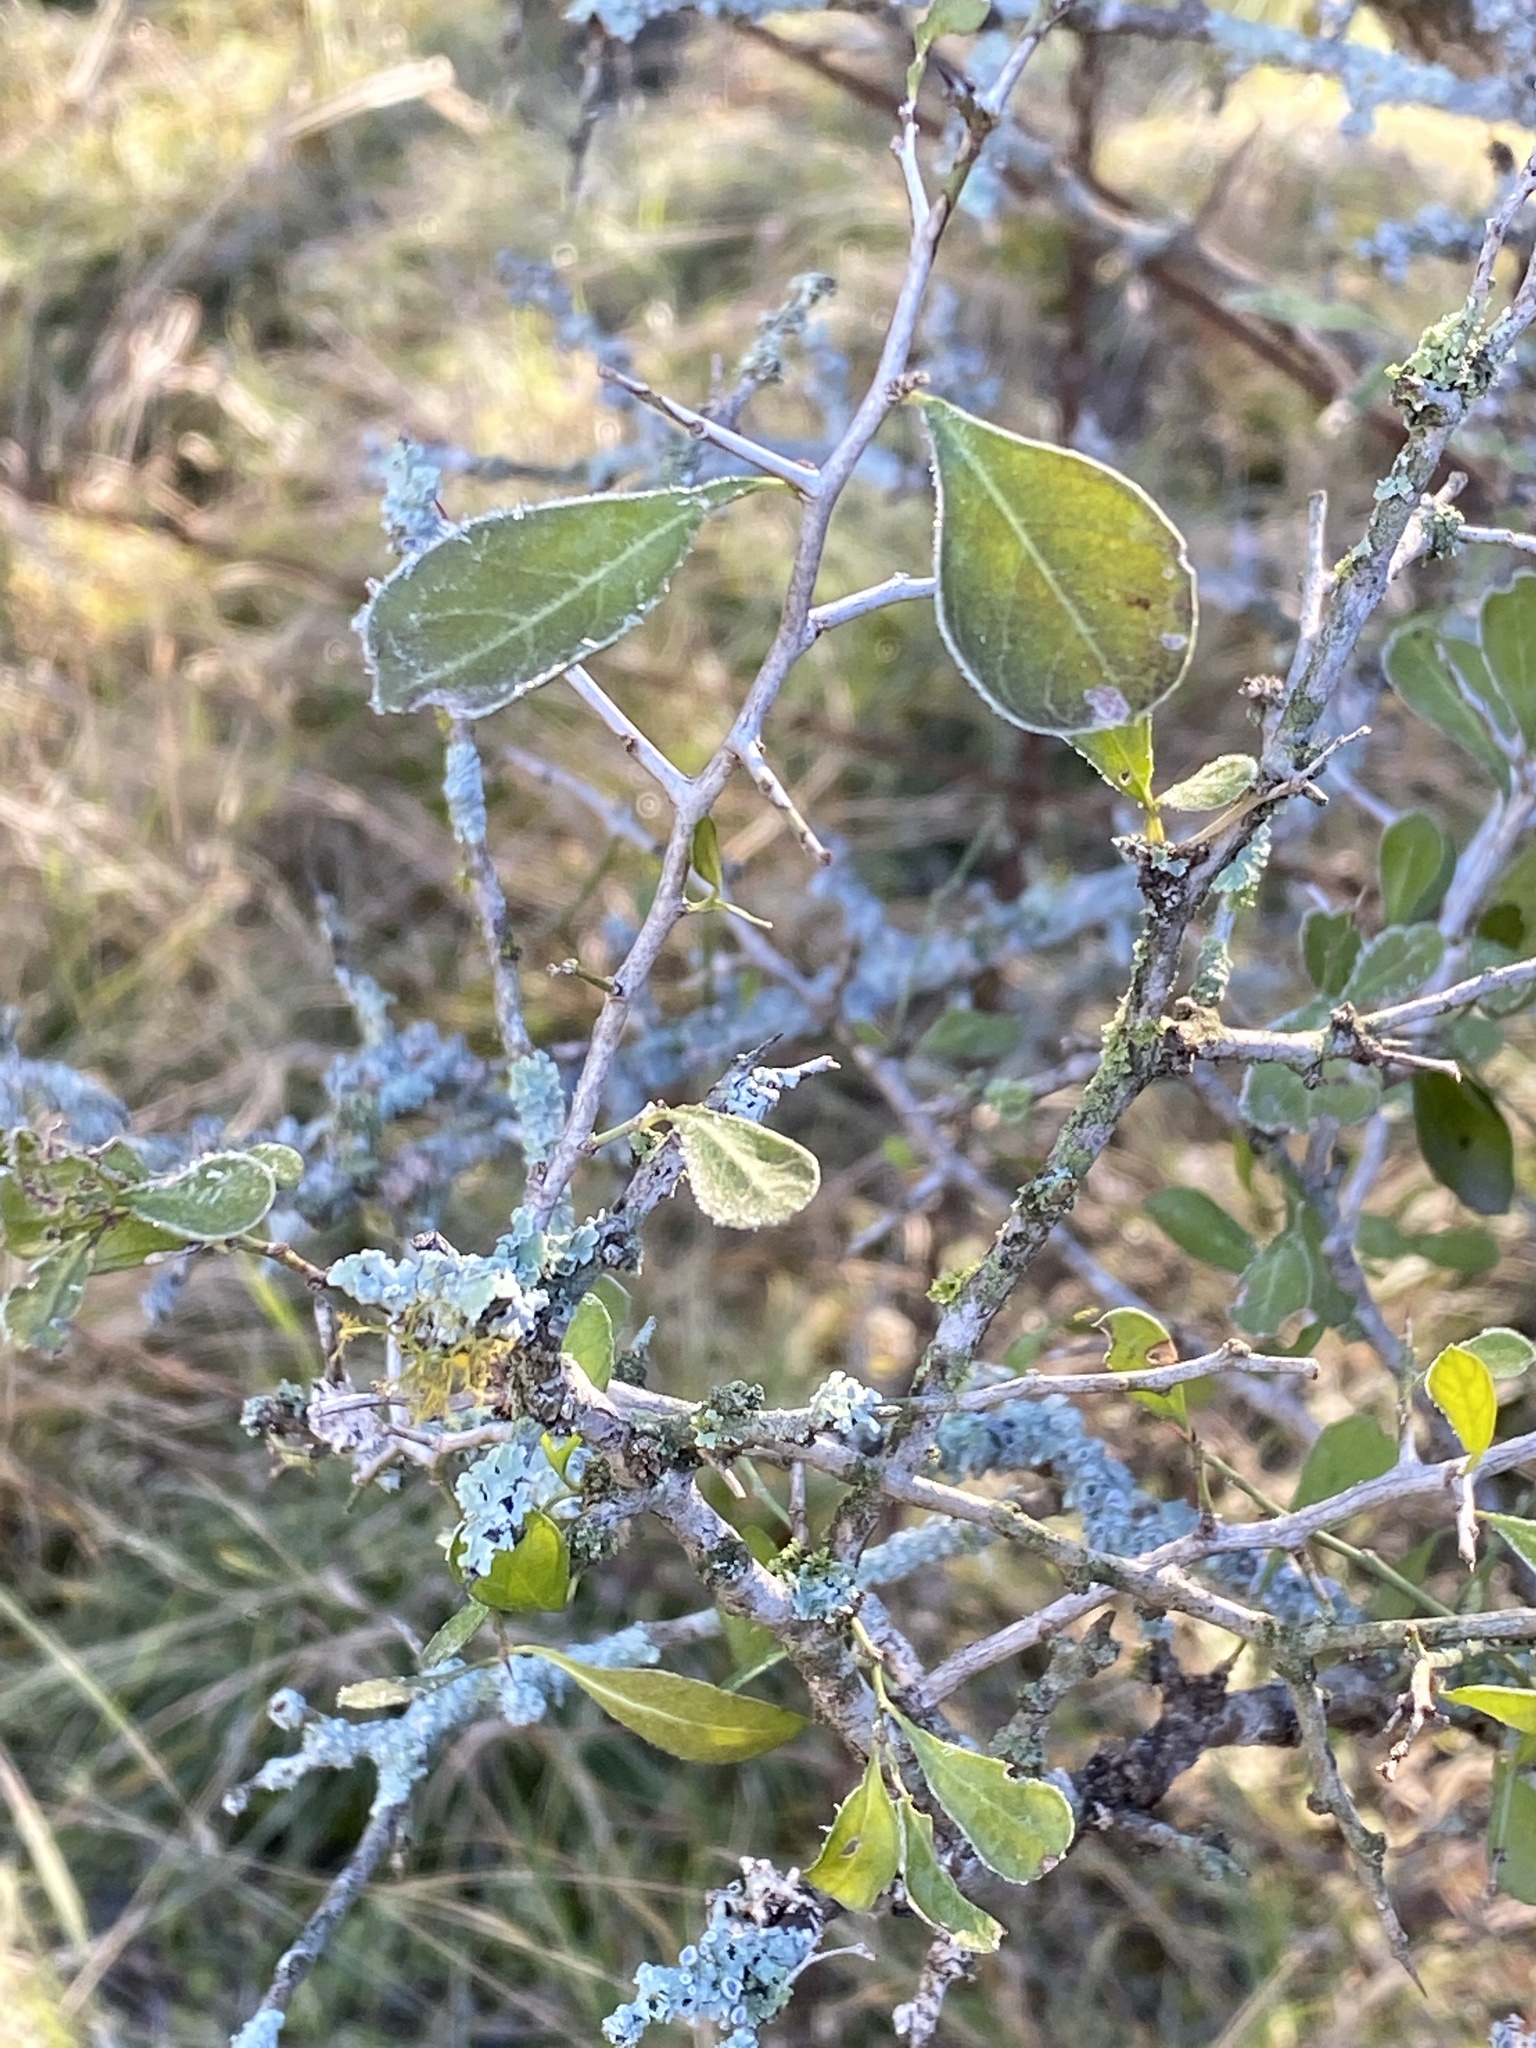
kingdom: Plantae
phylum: Tracheophyta
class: Magnoliopsida
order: Rosales
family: Rhamnaceae
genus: Condalia
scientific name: Condalia hookeri
